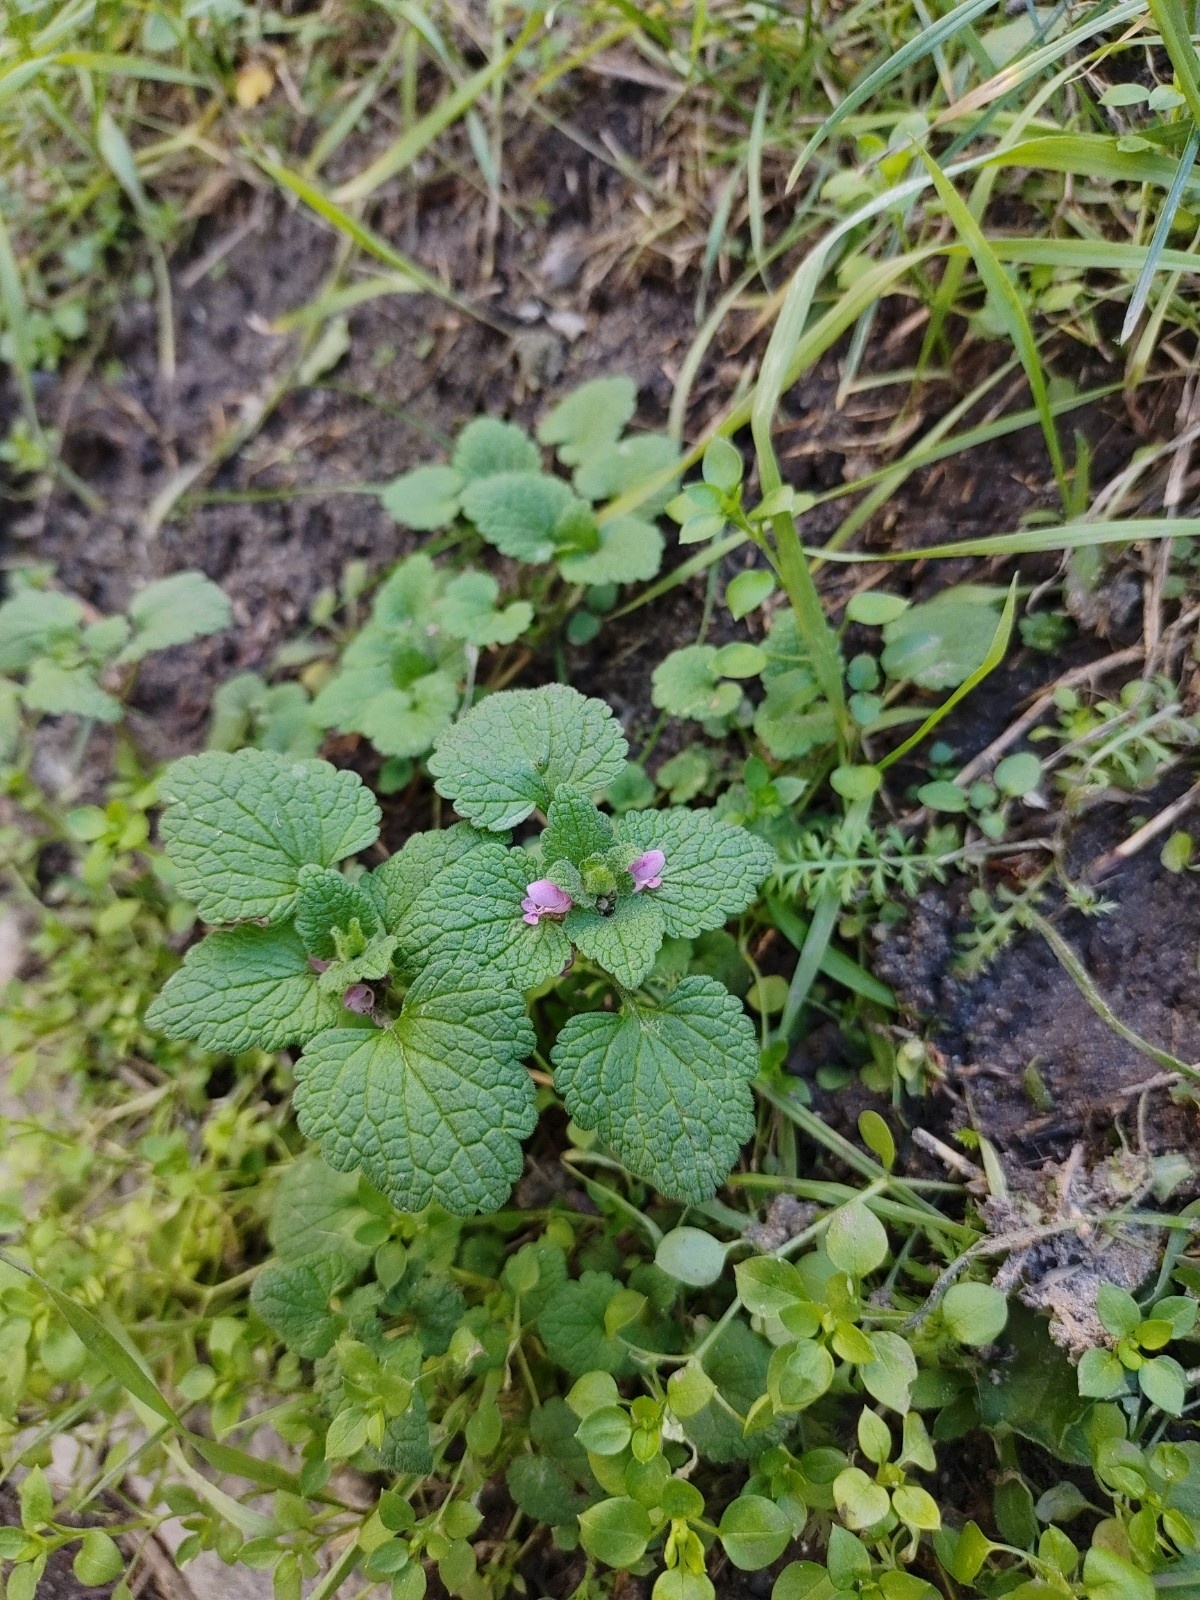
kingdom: Plantae
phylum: Tracheophyta
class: Magnoliopsida
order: Lamiales
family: Lamiaceae
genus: Lamium
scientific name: Lamium purpureum
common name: Red dead-nettle
